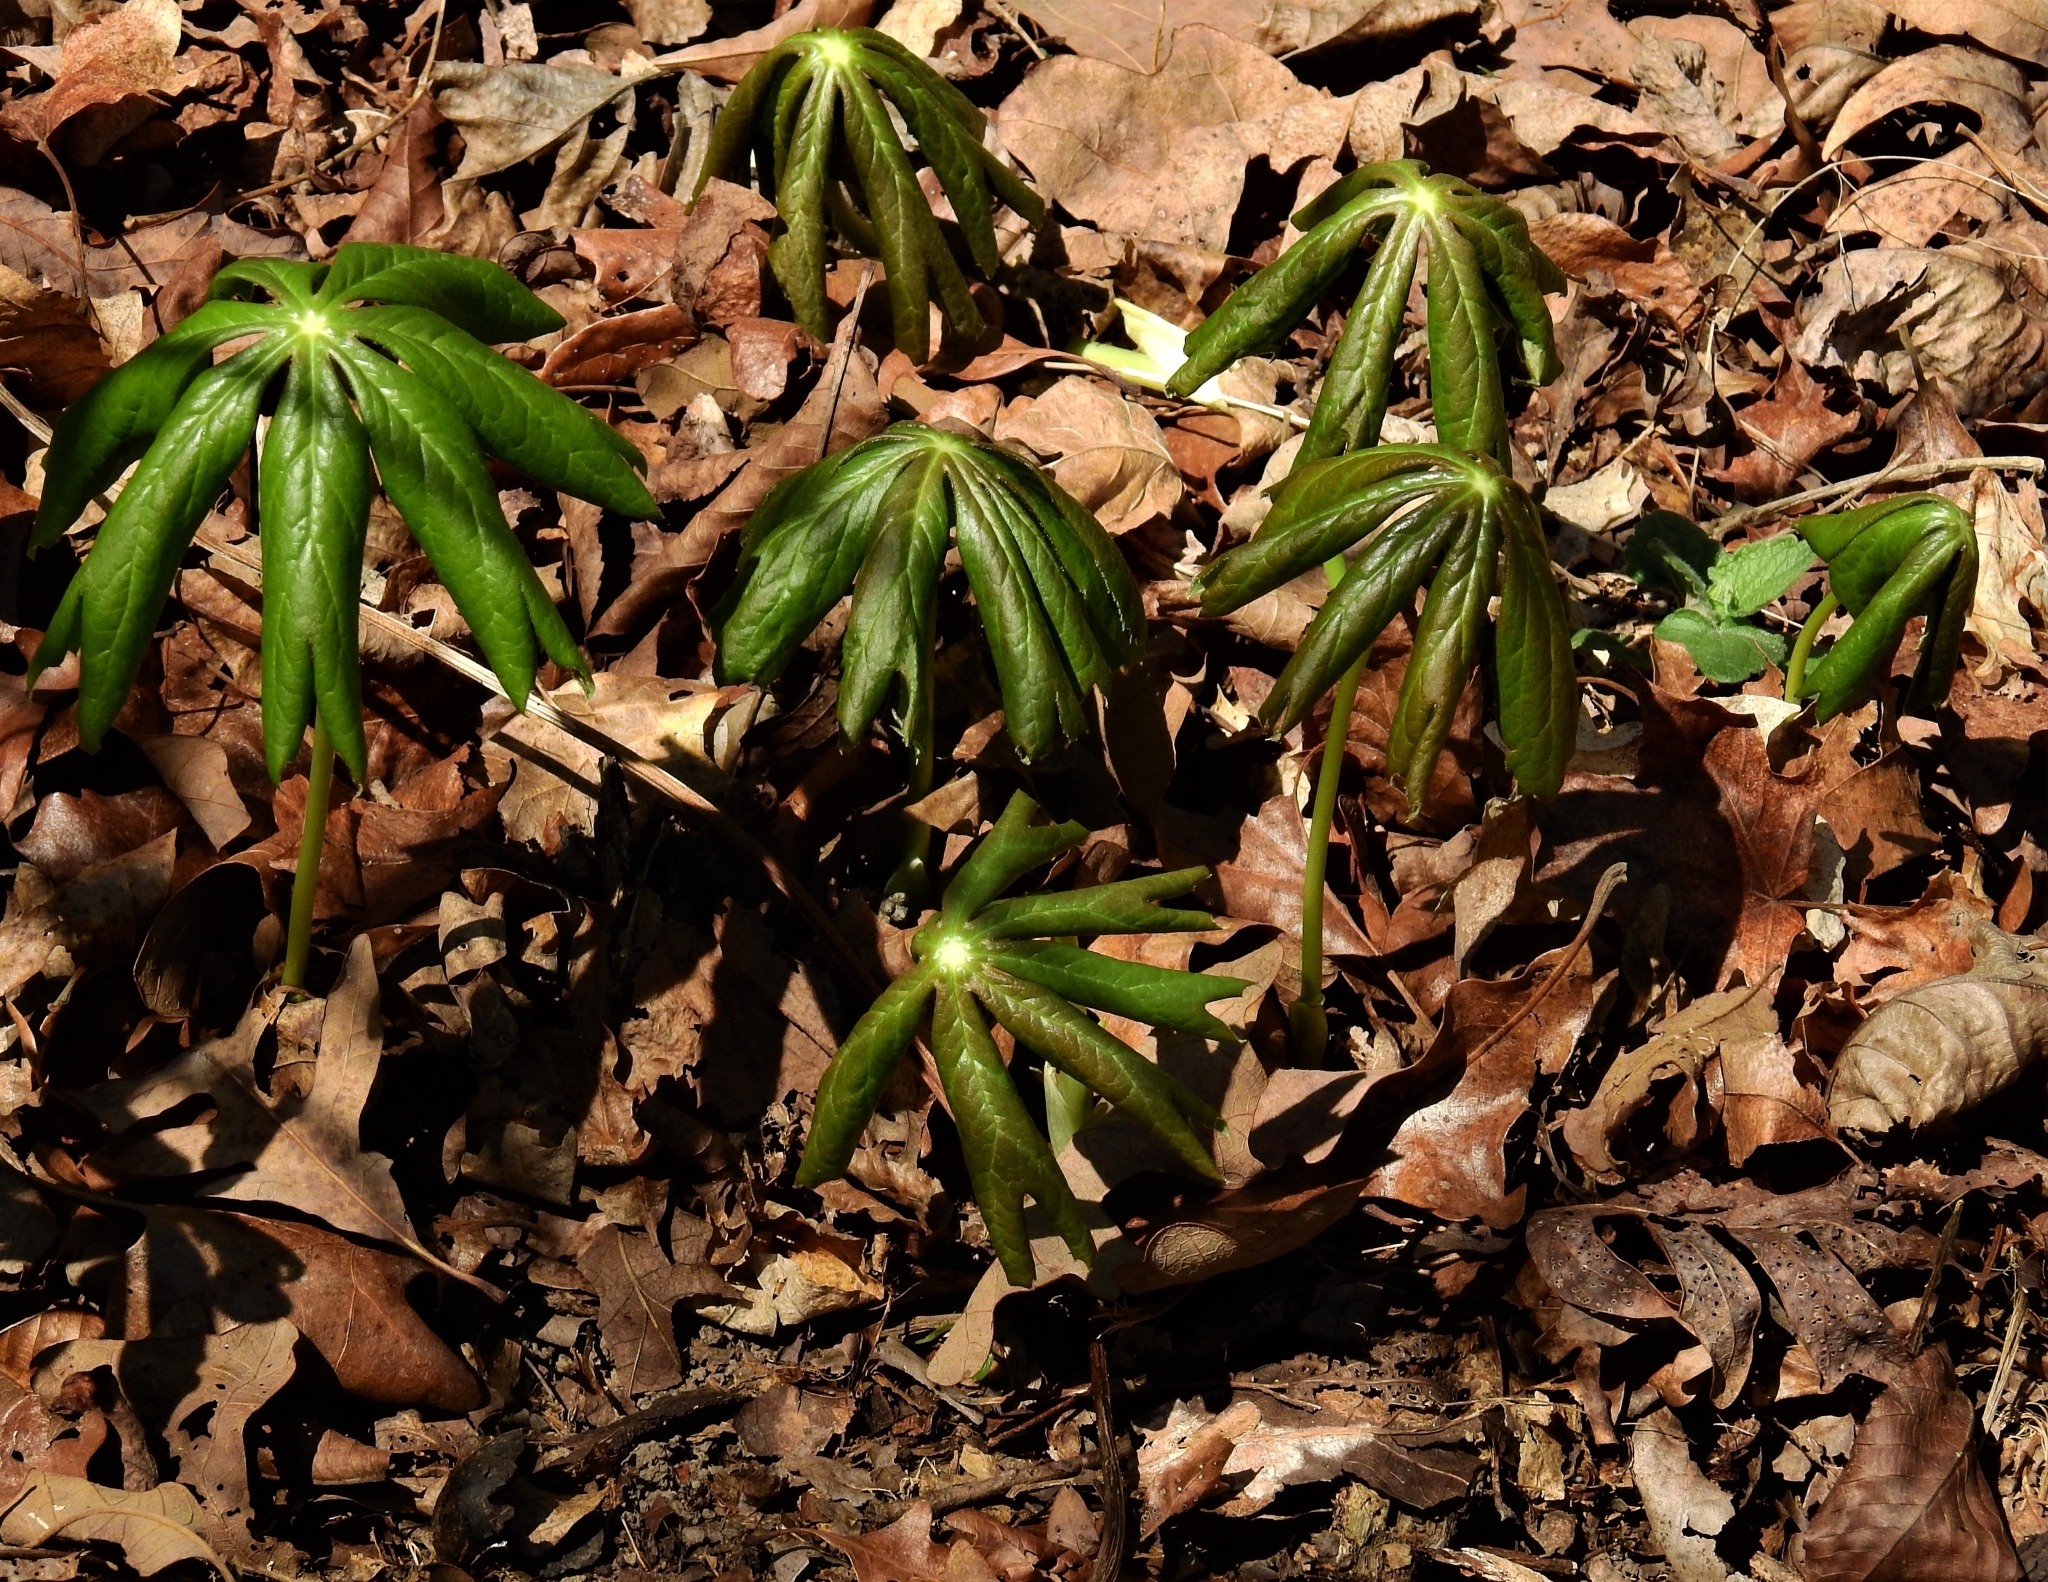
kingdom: Plantae
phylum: Tracheophyta
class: Magnoliopsida
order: Ranunculales
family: Berberidaceae
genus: Podophyllum
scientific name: Podophyllum peltatum
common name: Wild mandrake
